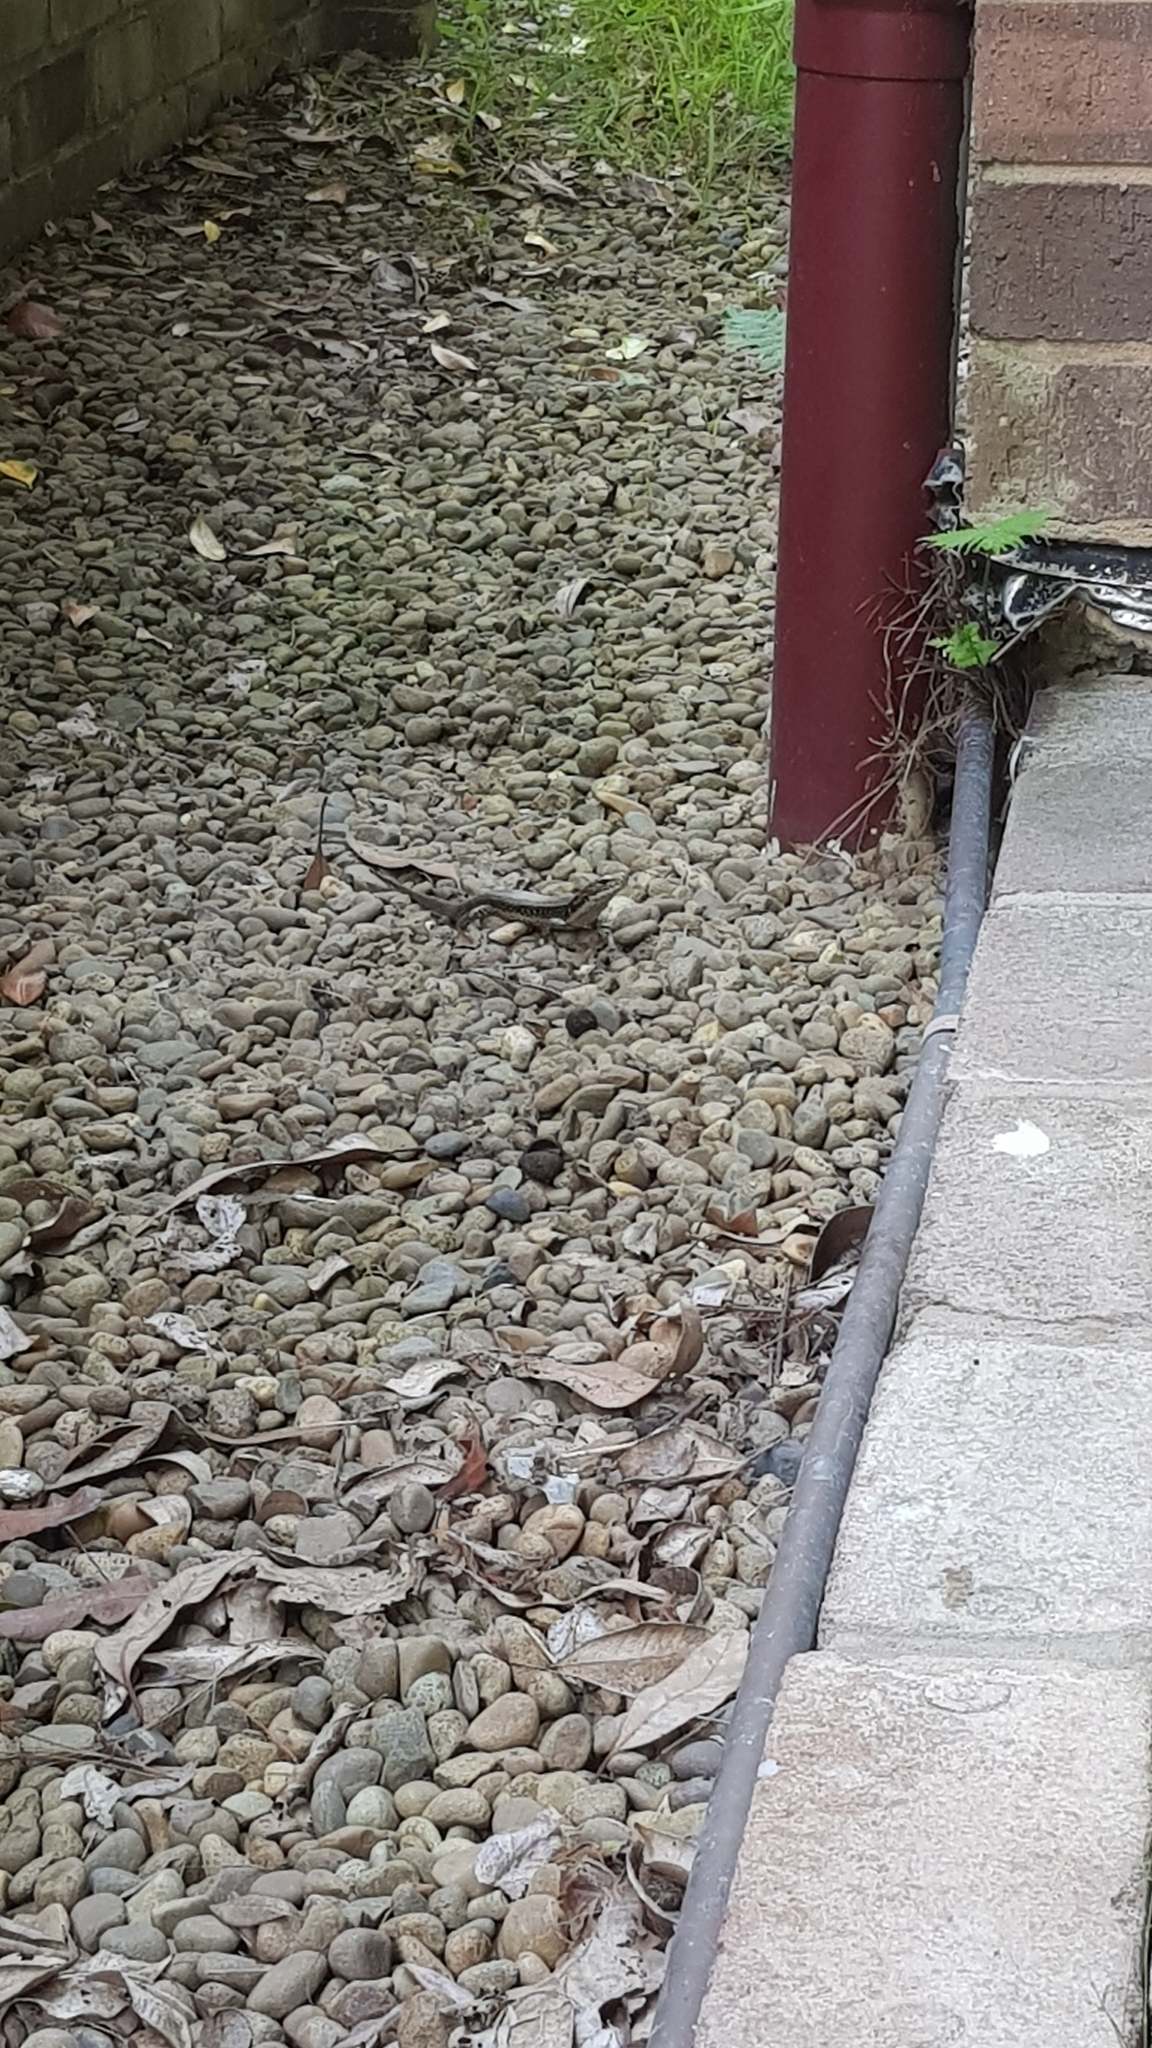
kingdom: Animalia
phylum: Chordata
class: Squamata
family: Scincidae
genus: Eulamprus
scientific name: Eulamprus quoyii
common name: Eastern water skink
